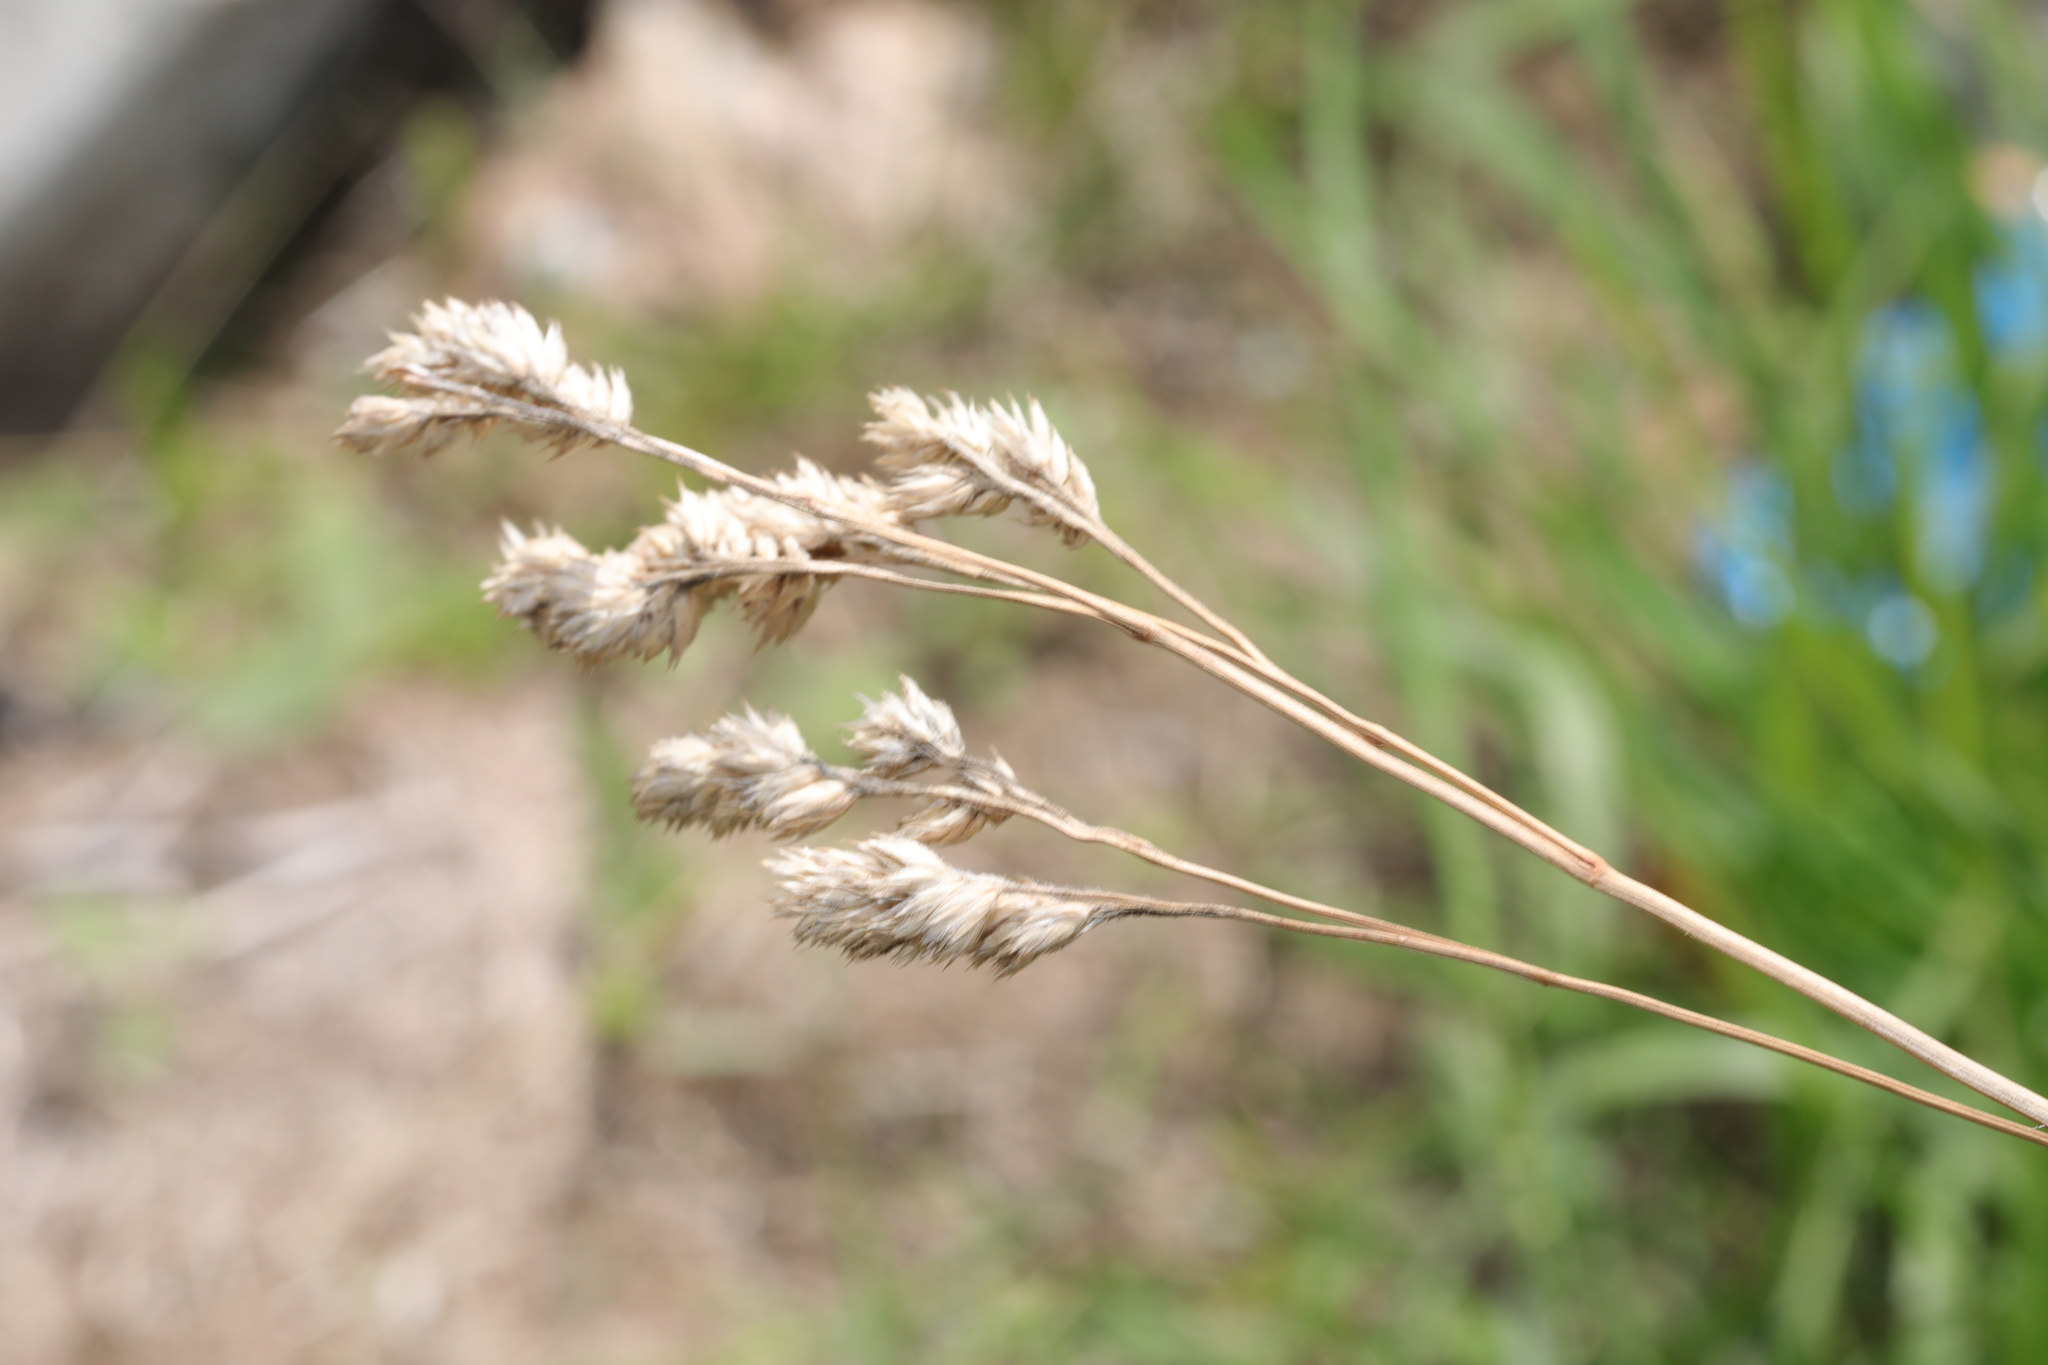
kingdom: Plantae
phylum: Tracheophyta
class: Liliopsida
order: Poales
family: Poaceae
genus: Dactylis
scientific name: Dactylis glomerata
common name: Orchardgrass
